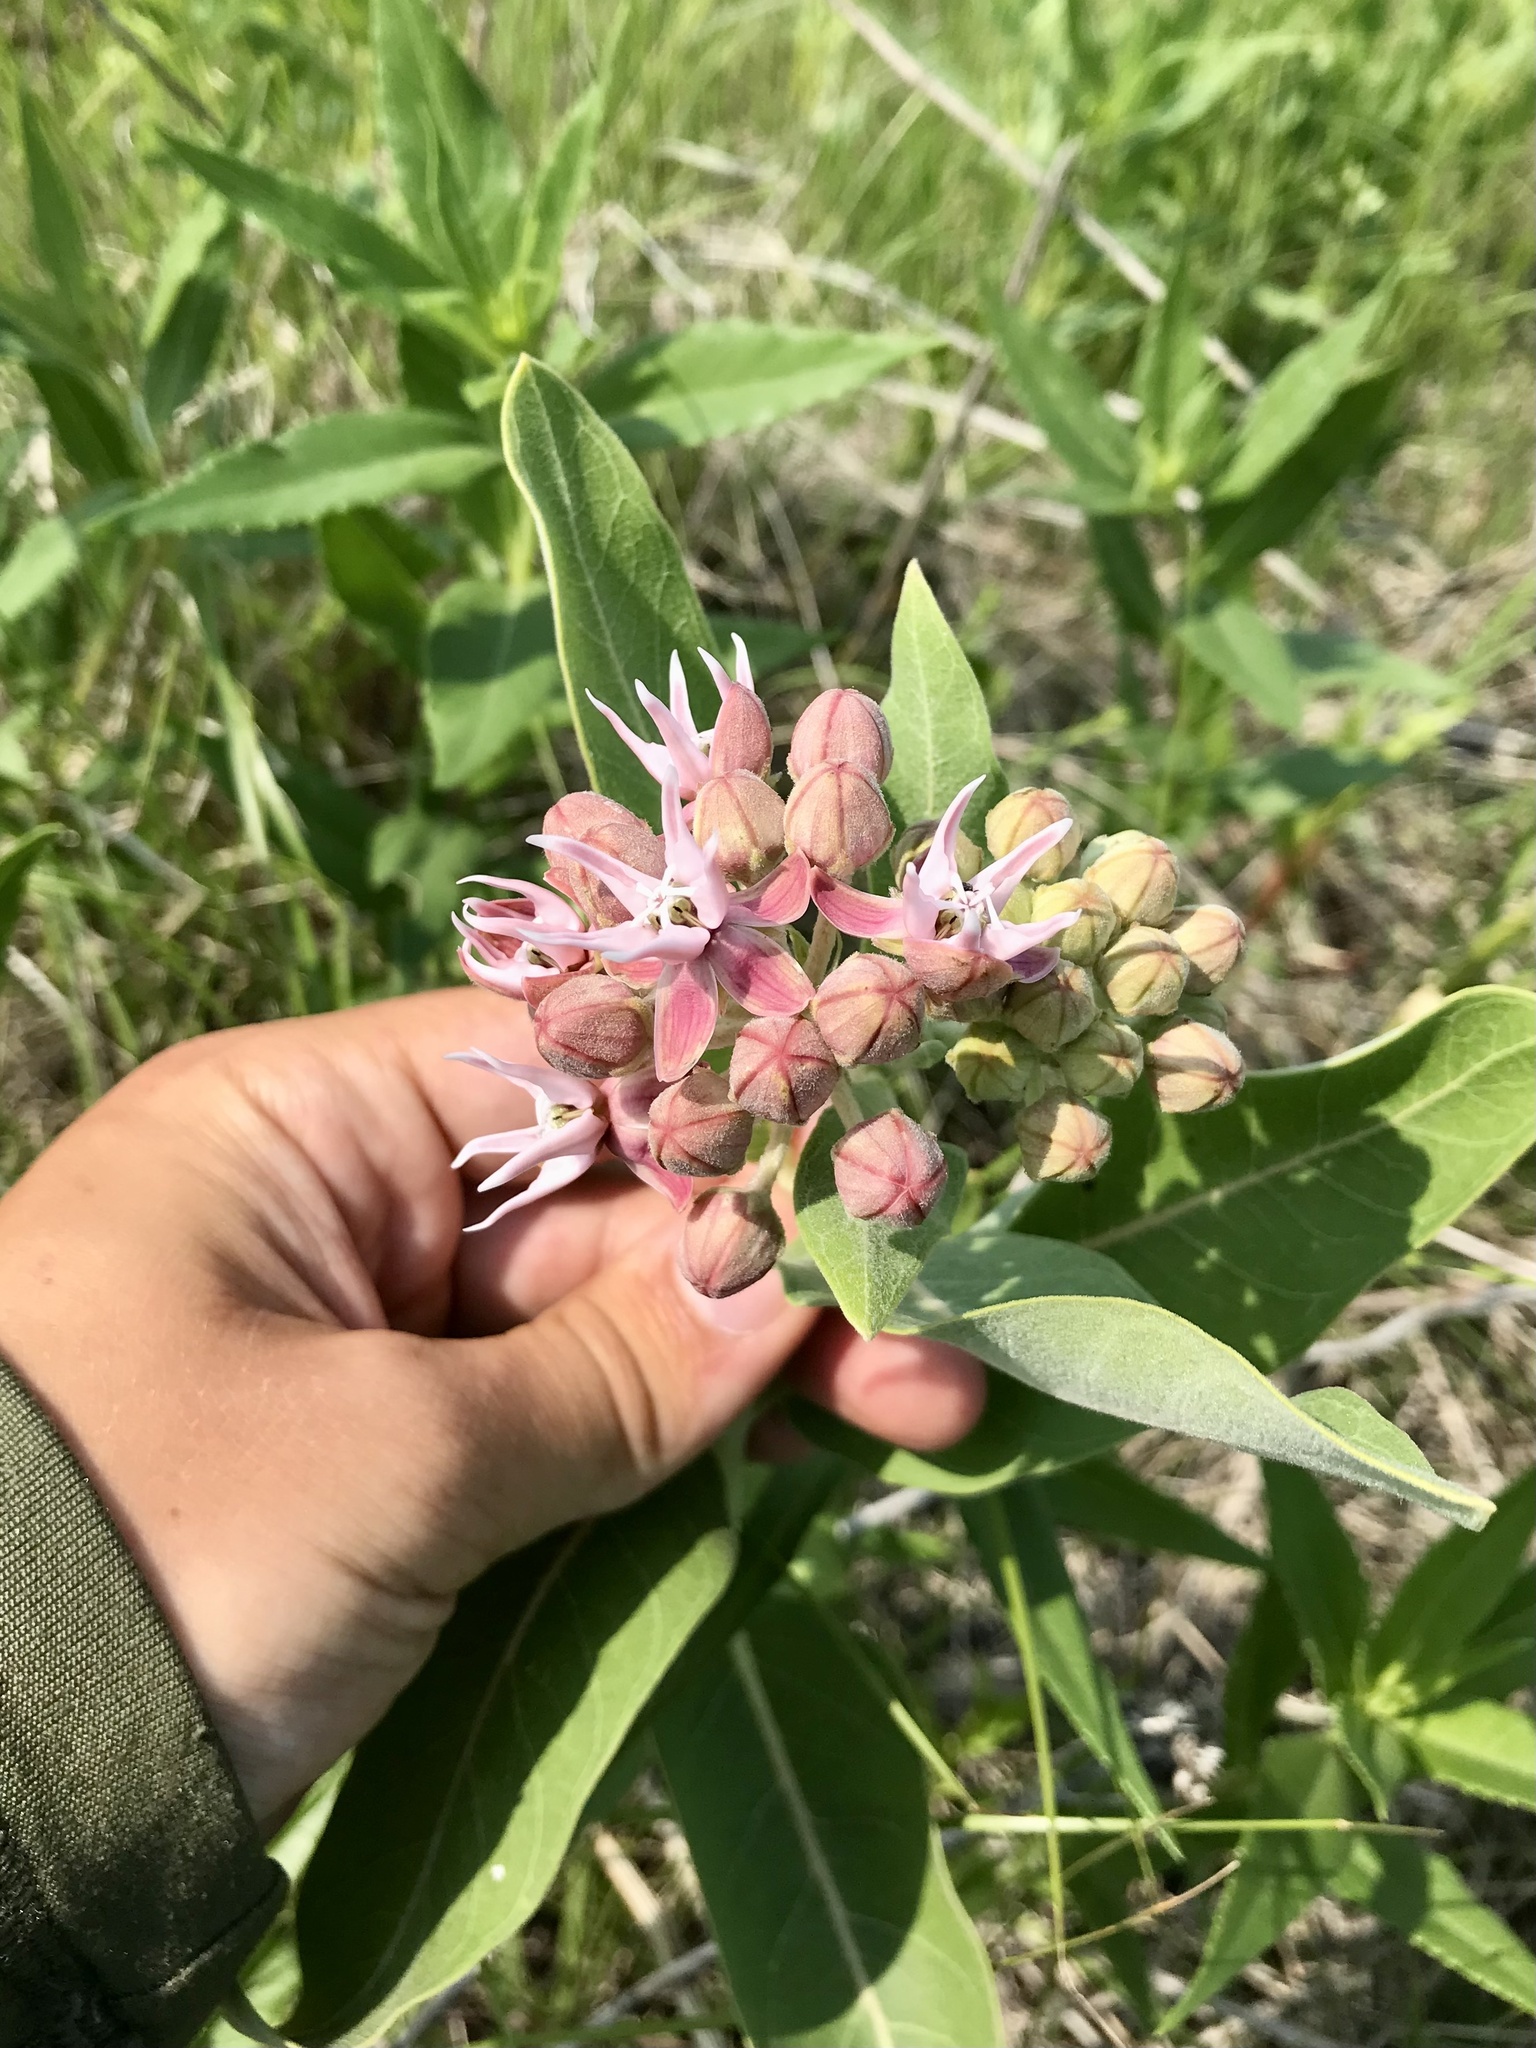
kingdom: Plantae
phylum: Tracheophyta
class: Magnoliopsida
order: Gentianales
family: Apocynaceae
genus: Asclepias
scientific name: Asclepias speciosa
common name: Showy milkweed
